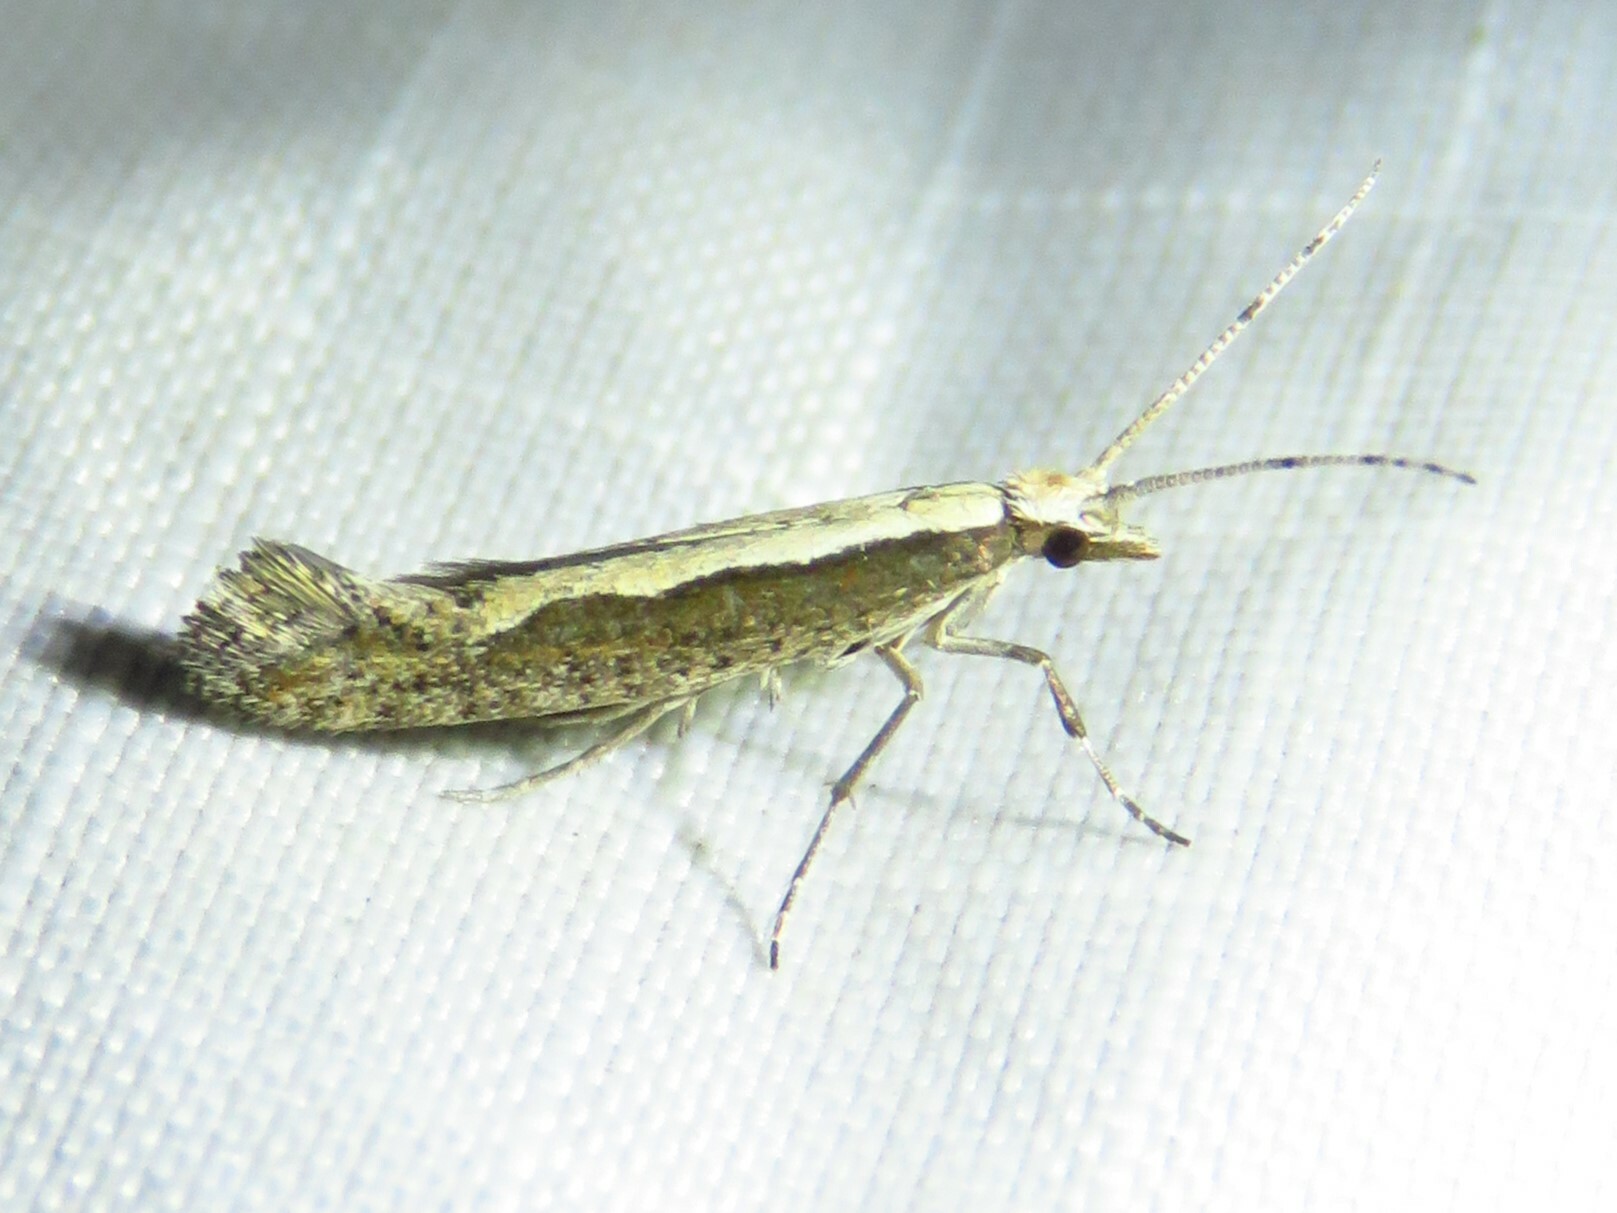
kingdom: Animalia
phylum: Arthropoda
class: Insecta
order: Lepidoptera
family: Plutellidae
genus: Plutella
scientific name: Plutella xylostella
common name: Diamond-back moth
